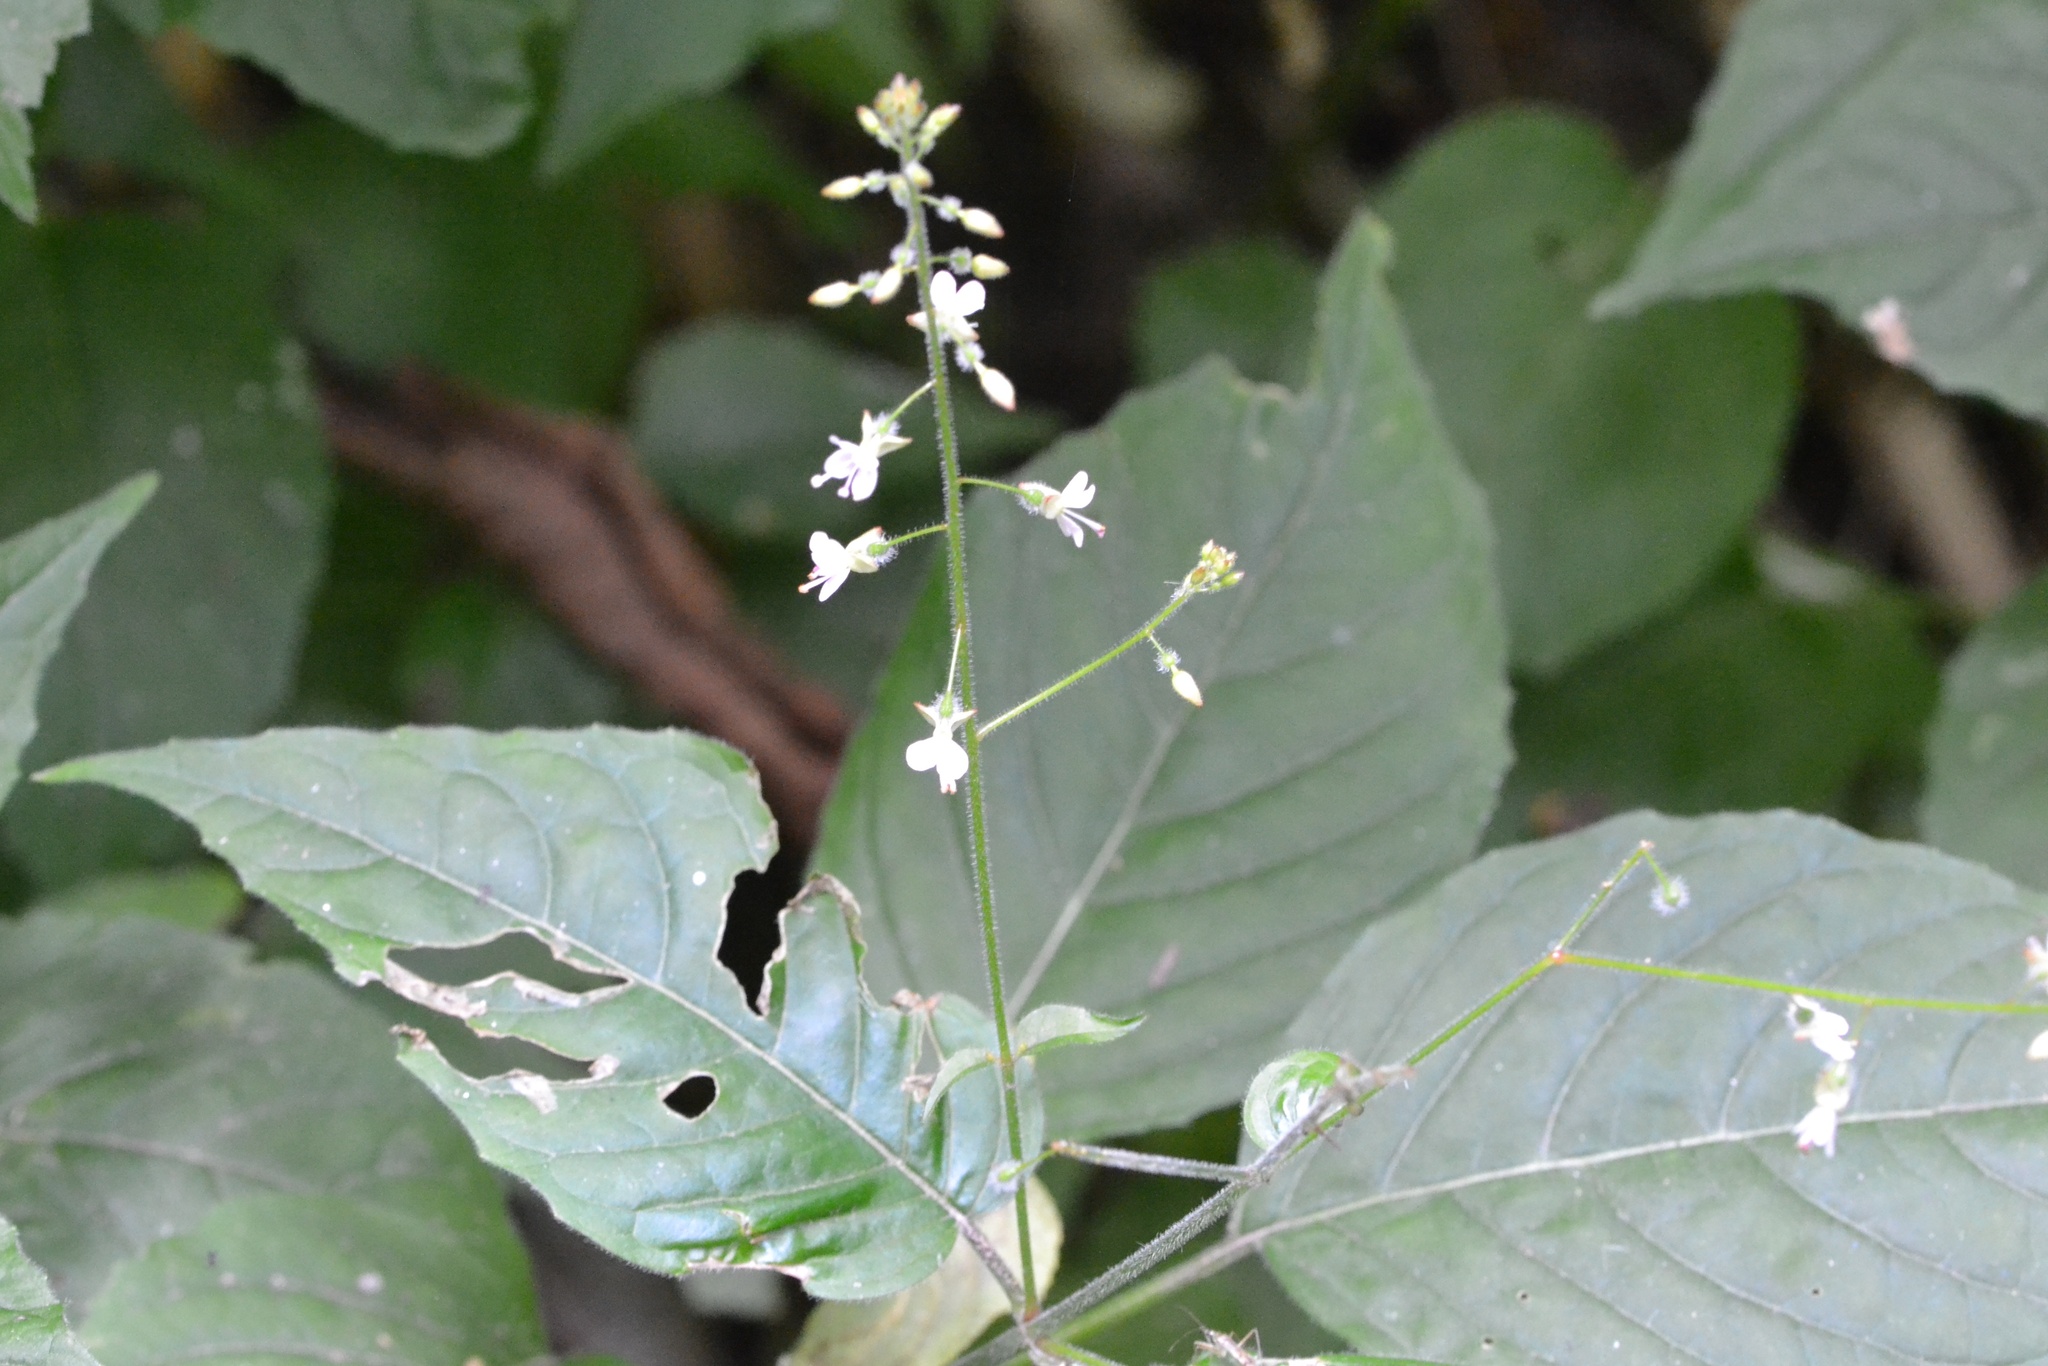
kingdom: Plantae
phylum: Tracheophyta
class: Magnoliopsida
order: Myrtales
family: Onagraceae
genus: Circaea
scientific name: Circaea lutetiana
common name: Enchanter's-nightshade
